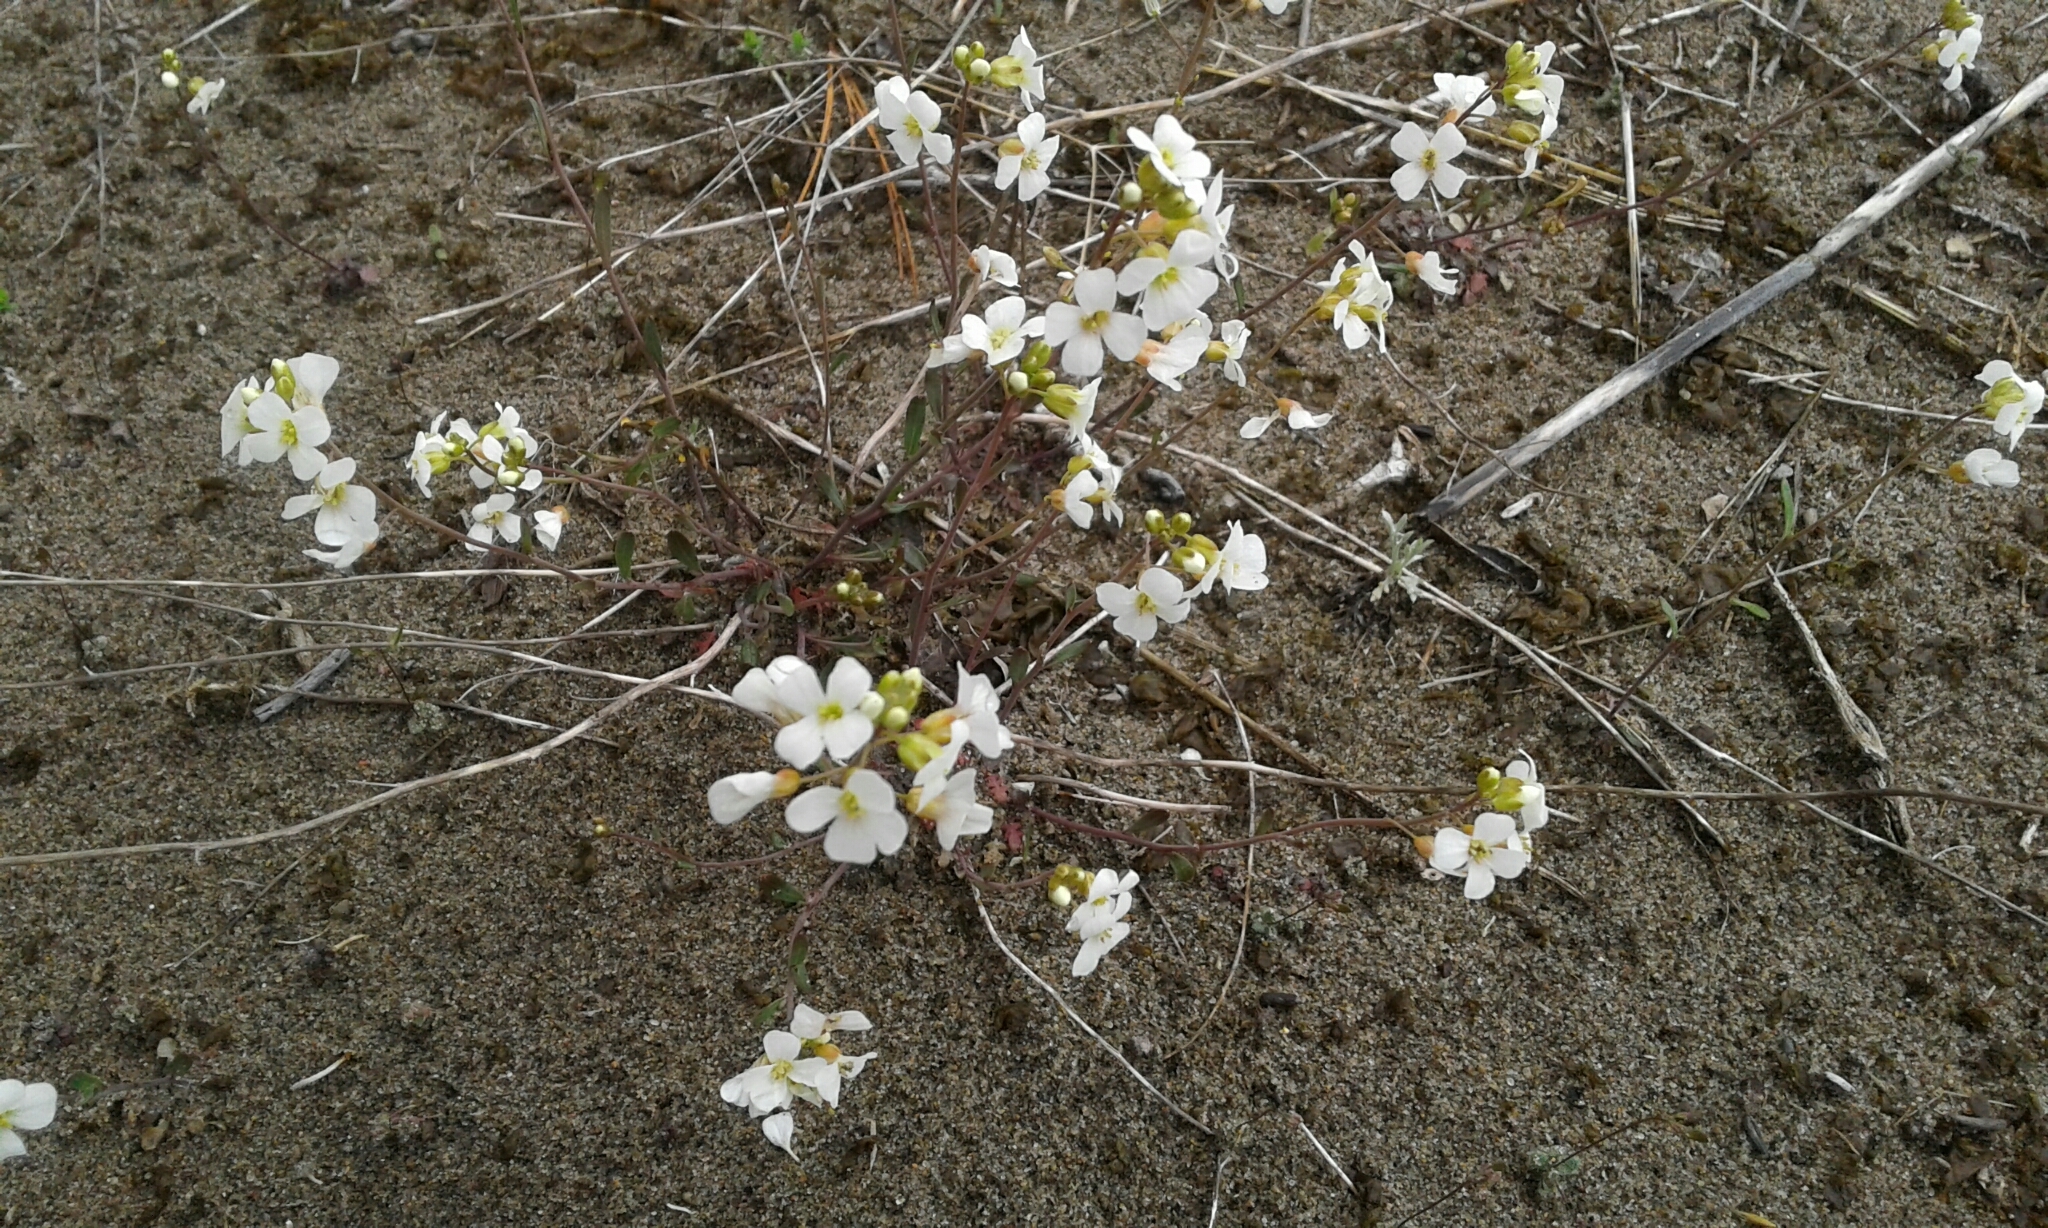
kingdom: Plantae
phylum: Tracheophyta
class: Magnoliopsida
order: Brassicales
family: Brassicaceae
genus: Arabidopsis
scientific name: Arabidopsis lyrata
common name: Lyrate rockcress
